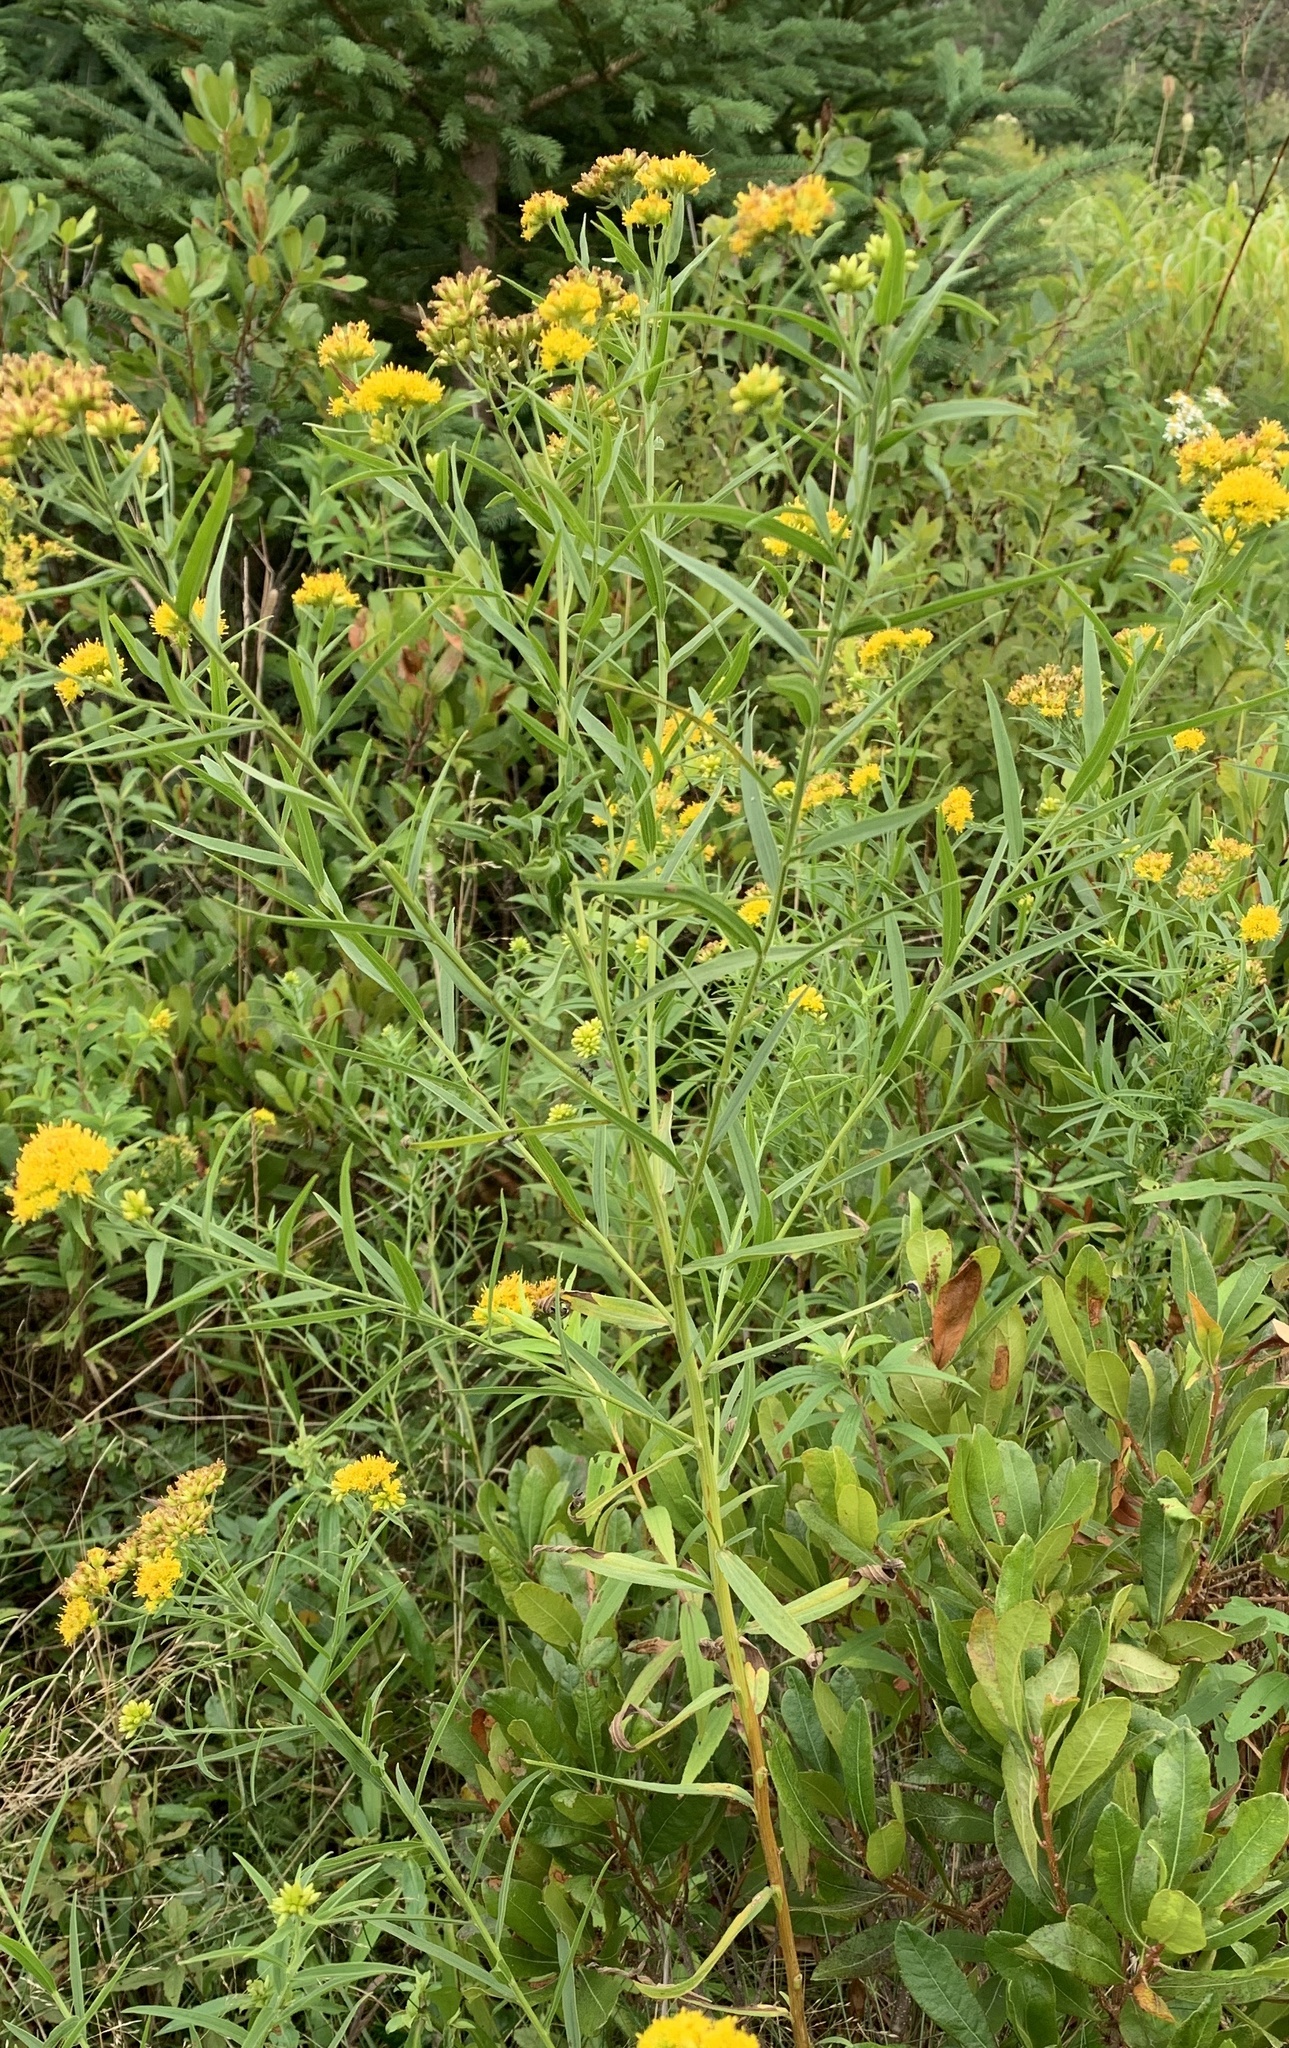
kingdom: Plantae
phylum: Tracheophyta
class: Magnoliopsida
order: Asterales
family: Asteraceae
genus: Euthamia
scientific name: Euthamia graminifolia
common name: Common goldentop
